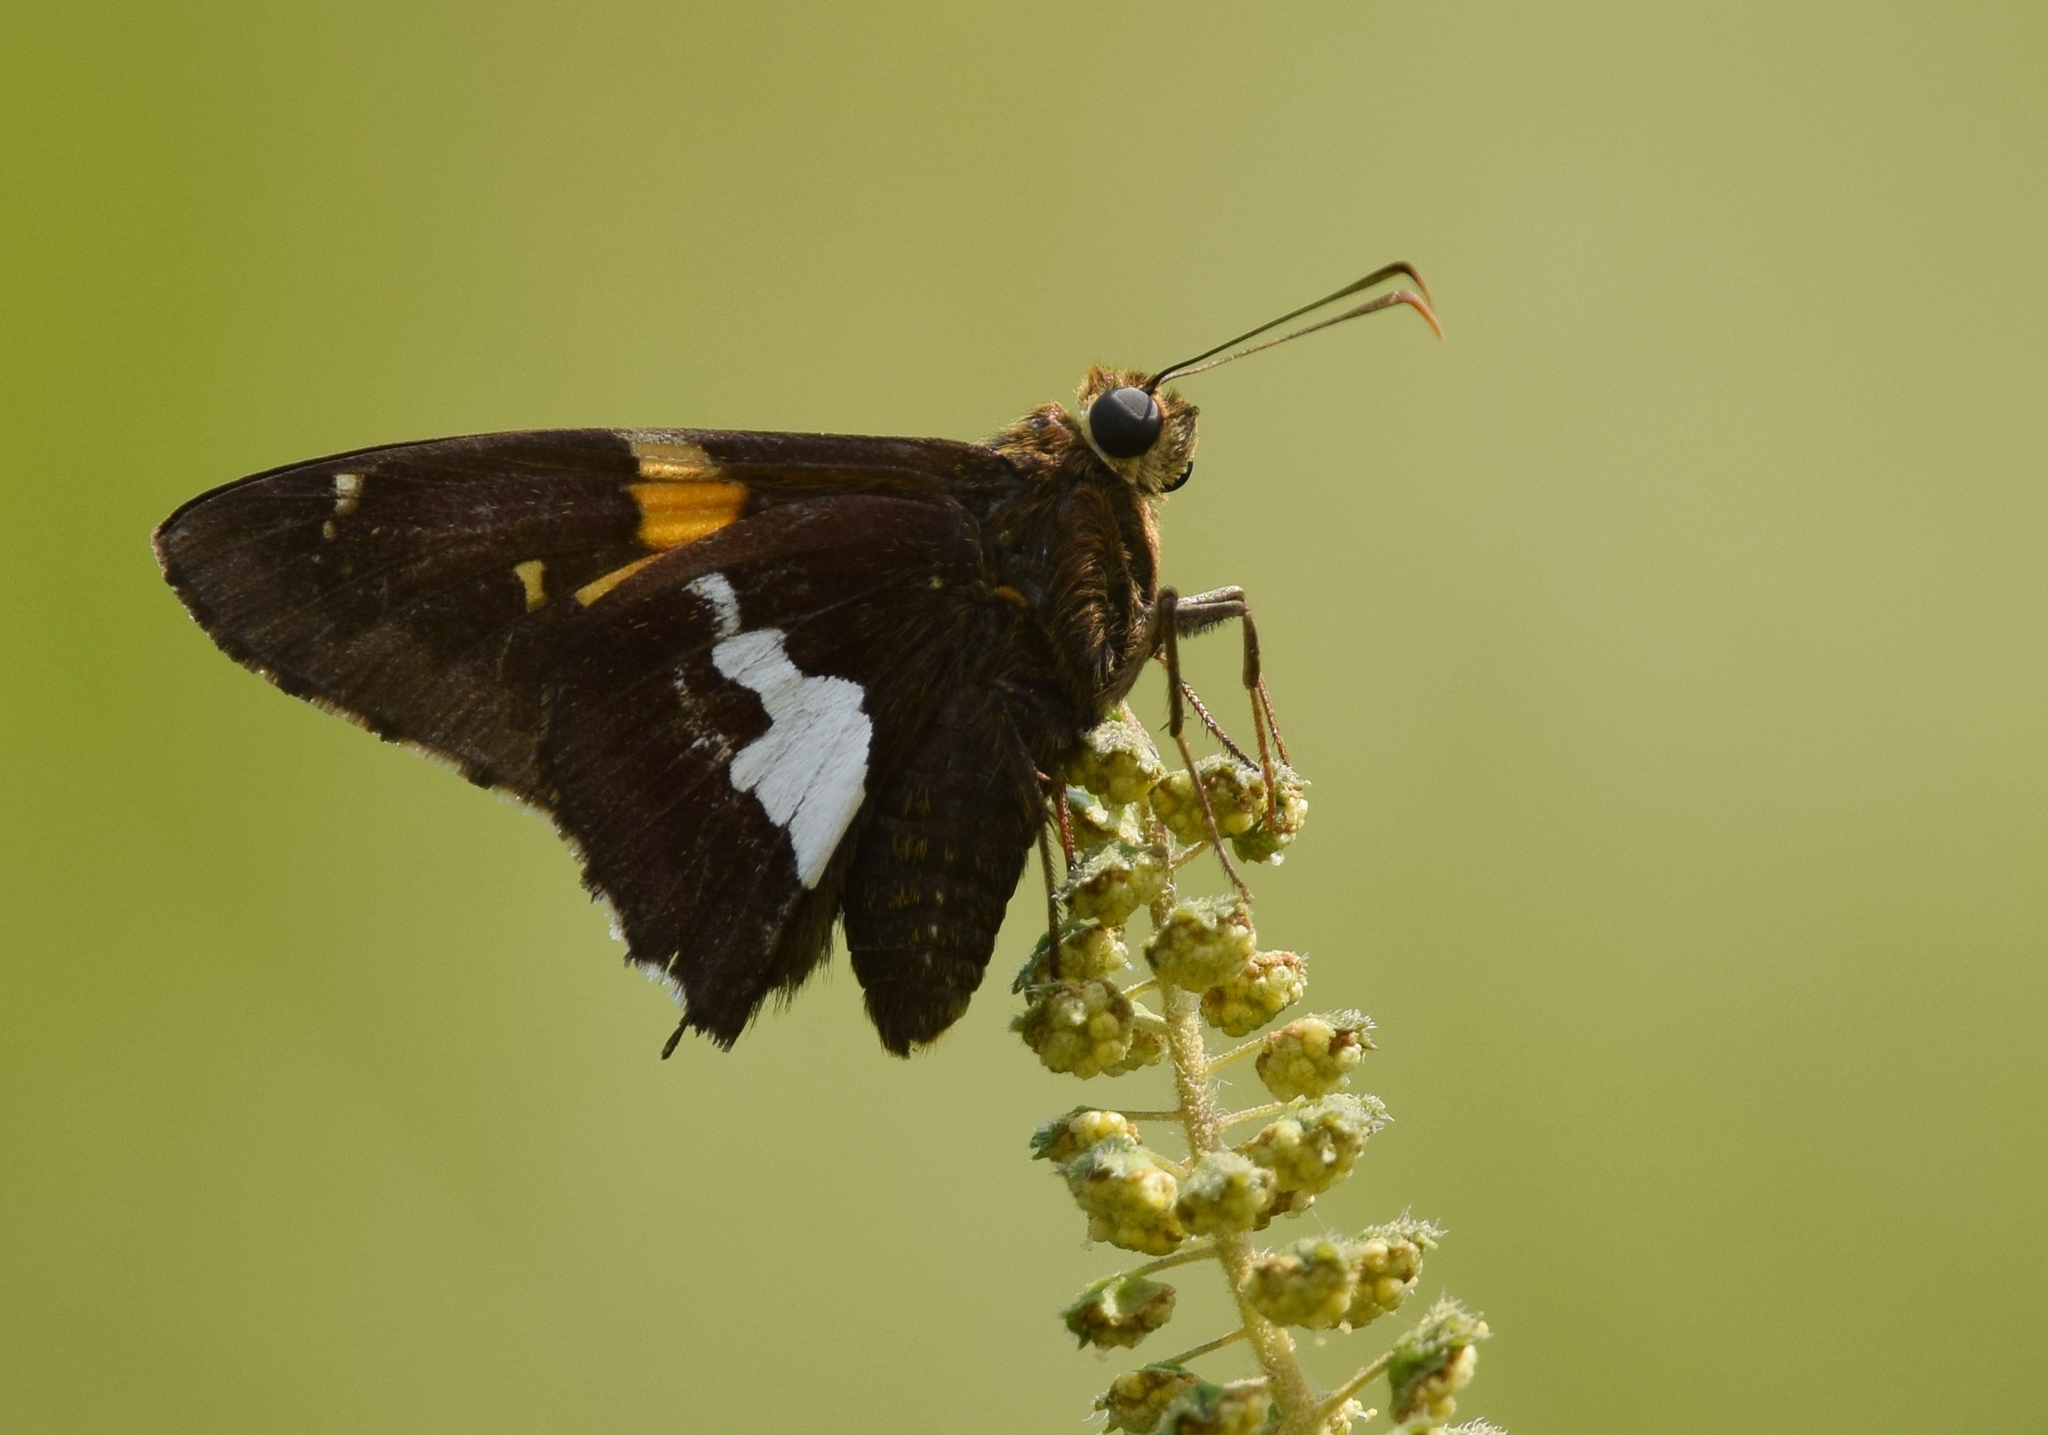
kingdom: Animalia
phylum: Arthropoda
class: Insecta
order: Lepidoptera
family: Hesperiidae
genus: Epargyreus
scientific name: Epargyreus clarus
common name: Silver-spotted skipper
